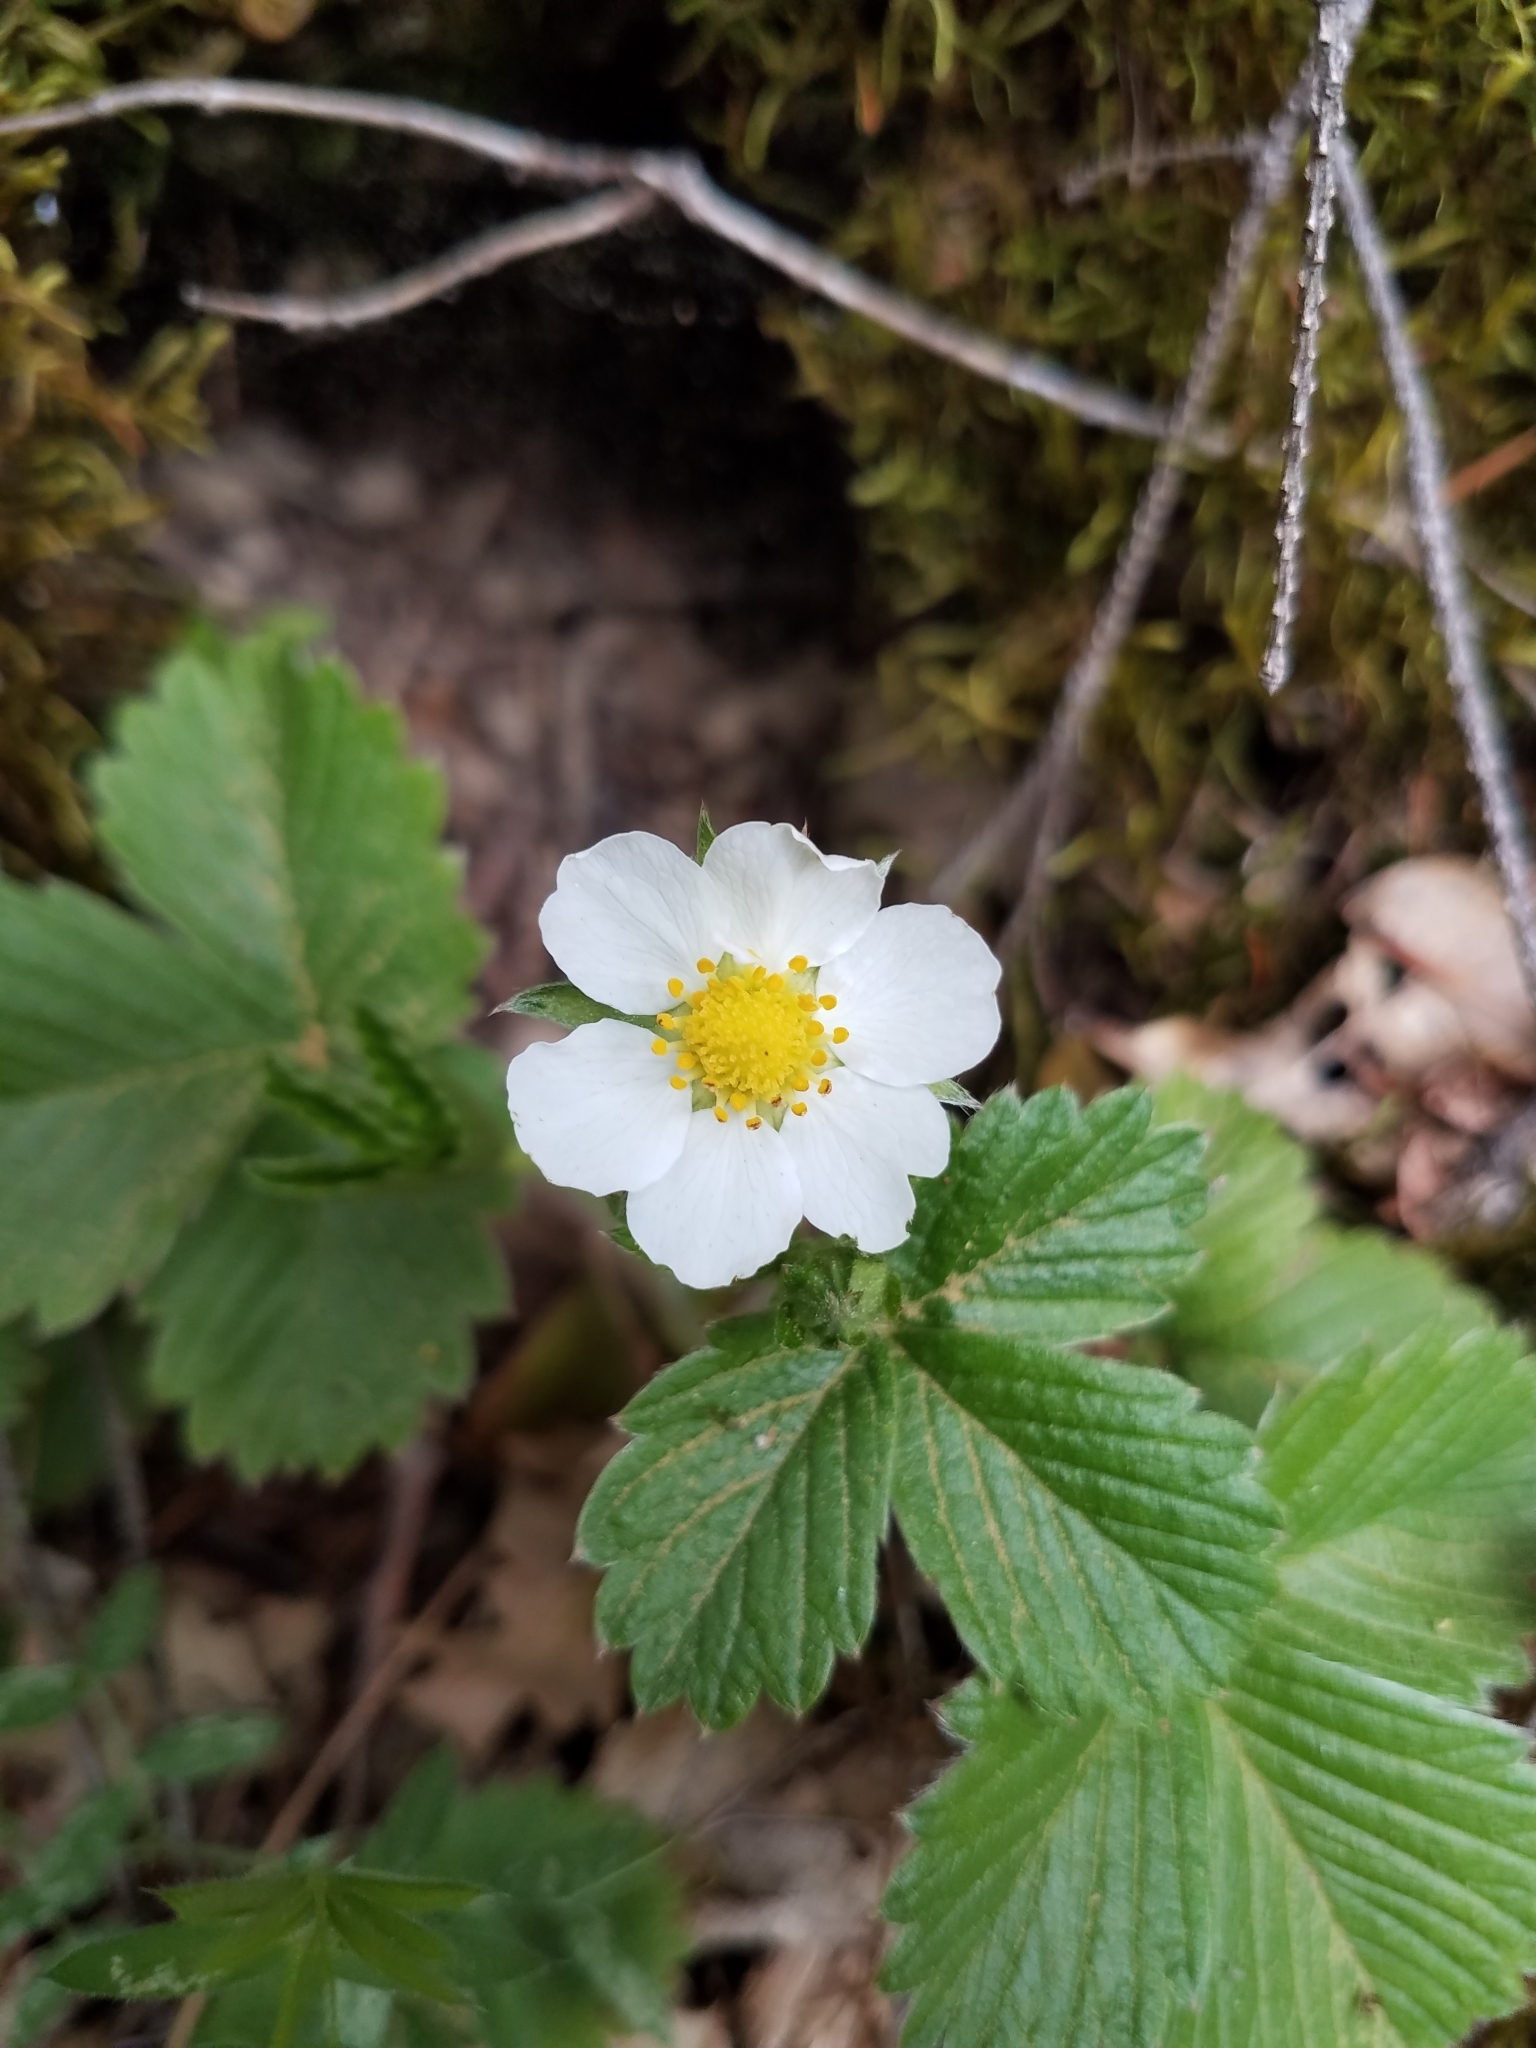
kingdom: Plantae
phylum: Tracheophyta
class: Magnoliopsida
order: Rosales
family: Rosaceae
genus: Fragaria
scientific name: Fragaria vesca
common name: Wild strawberry
